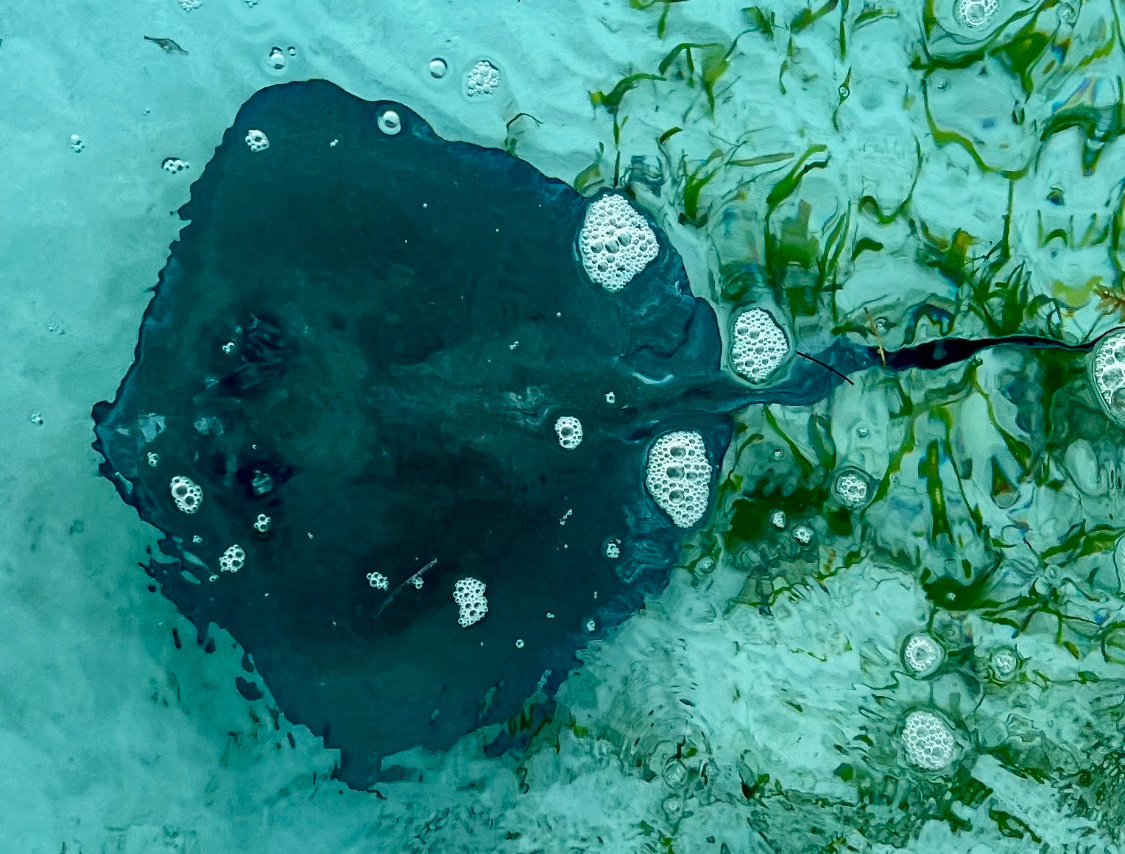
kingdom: Animalia
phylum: Chordata
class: Elasmobranchii
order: Myliobatiformes
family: Dasyatidae
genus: Hypanus
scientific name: Hypanus americanus
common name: Southern stingray
